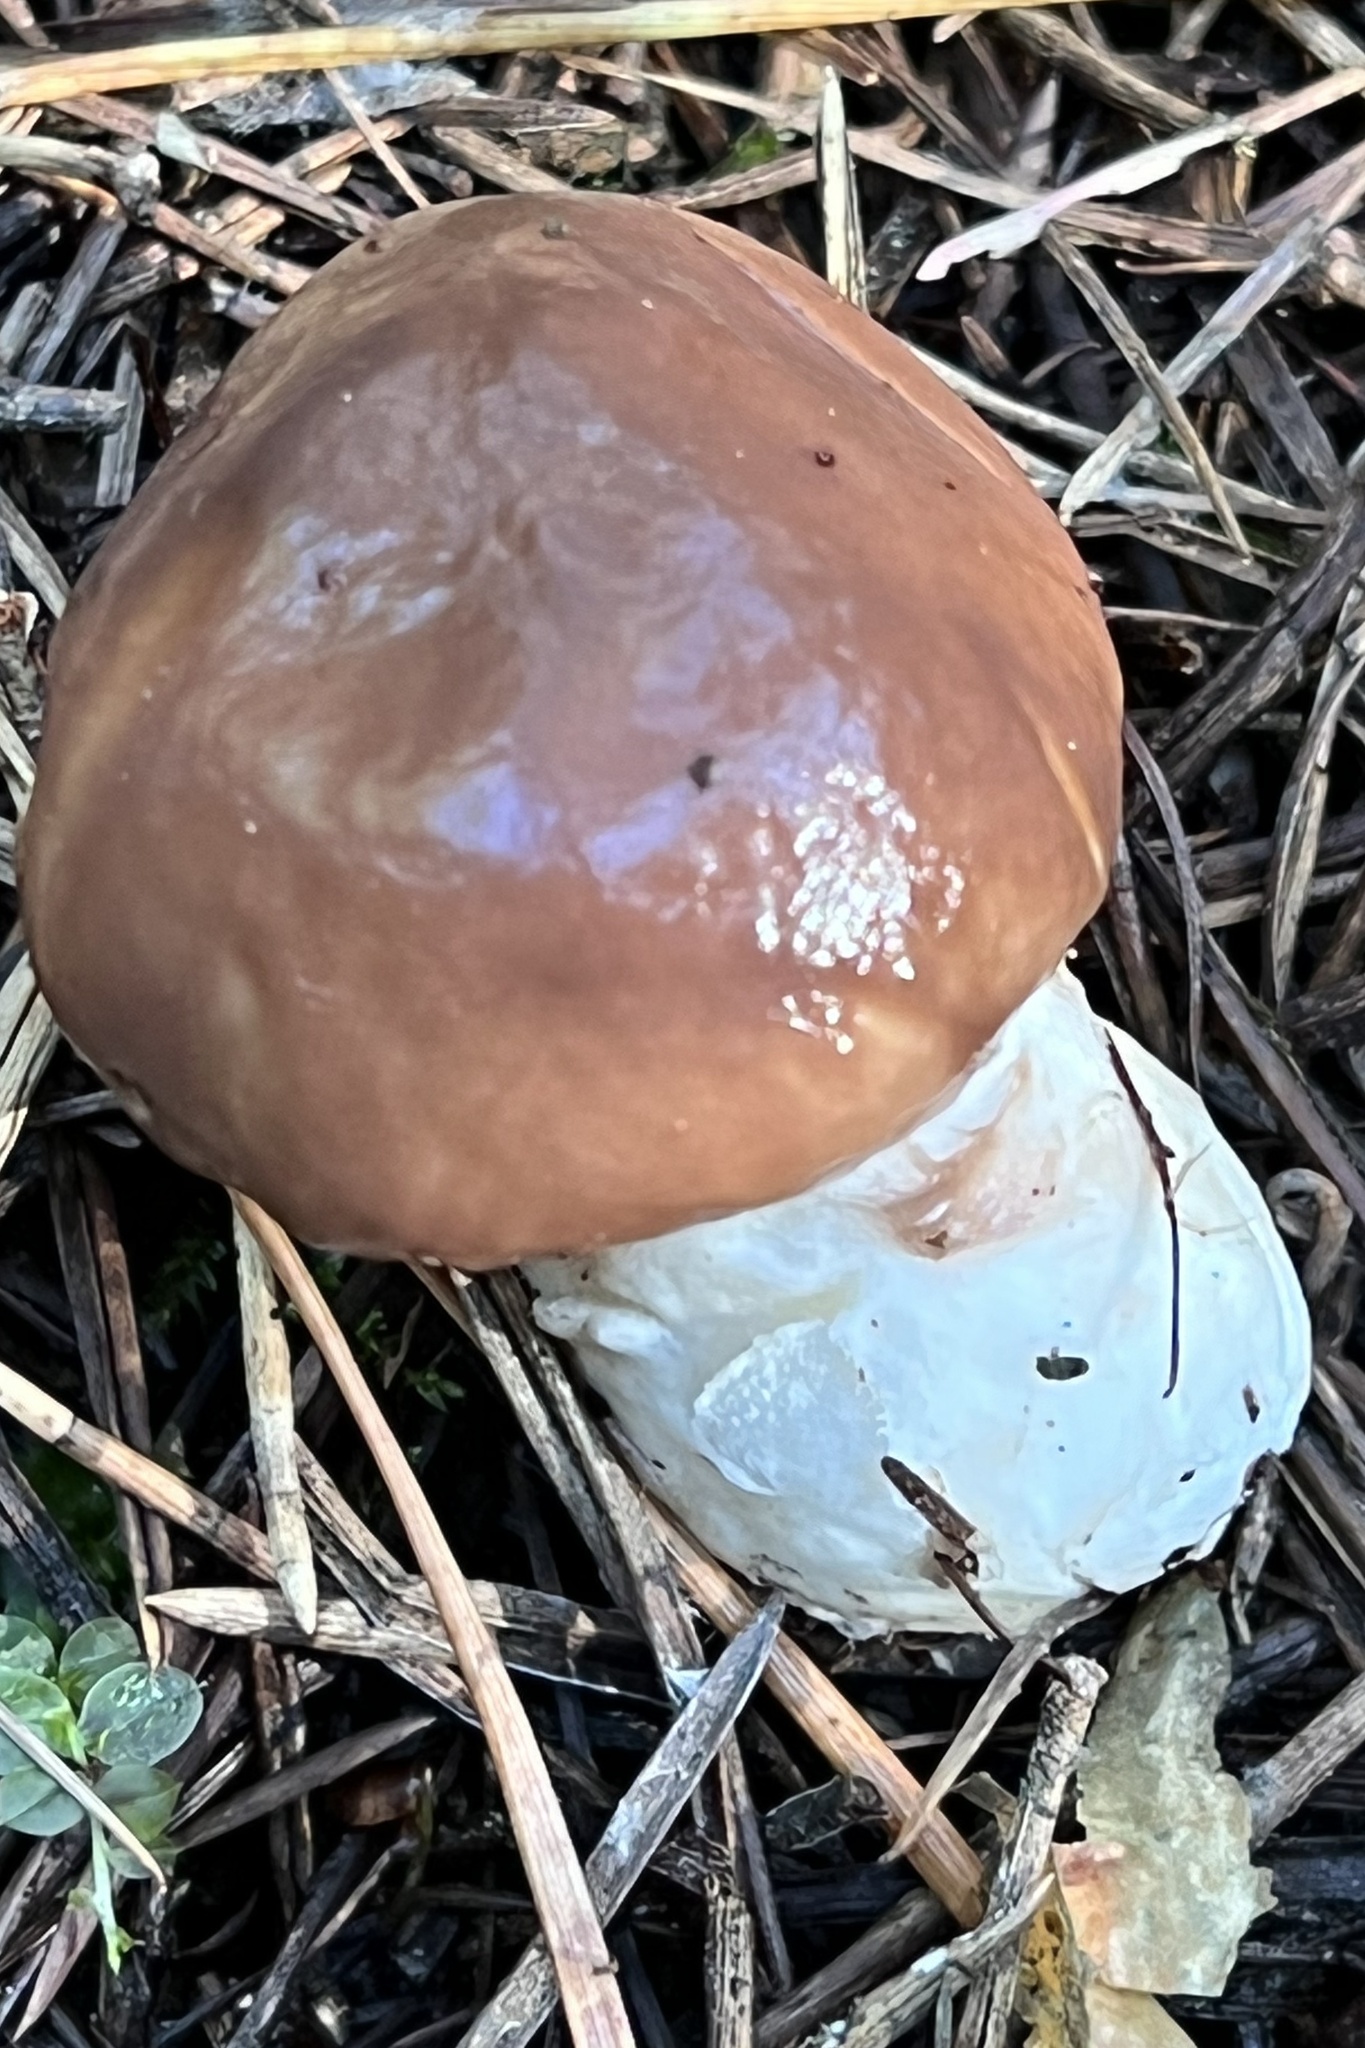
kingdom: Fungi
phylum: Basidiomycota
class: Agaricomycetes
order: Boletales
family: Gomphidiaceae
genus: Gomphidius
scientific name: Gomphidius glutinosus
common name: Slimy spike
